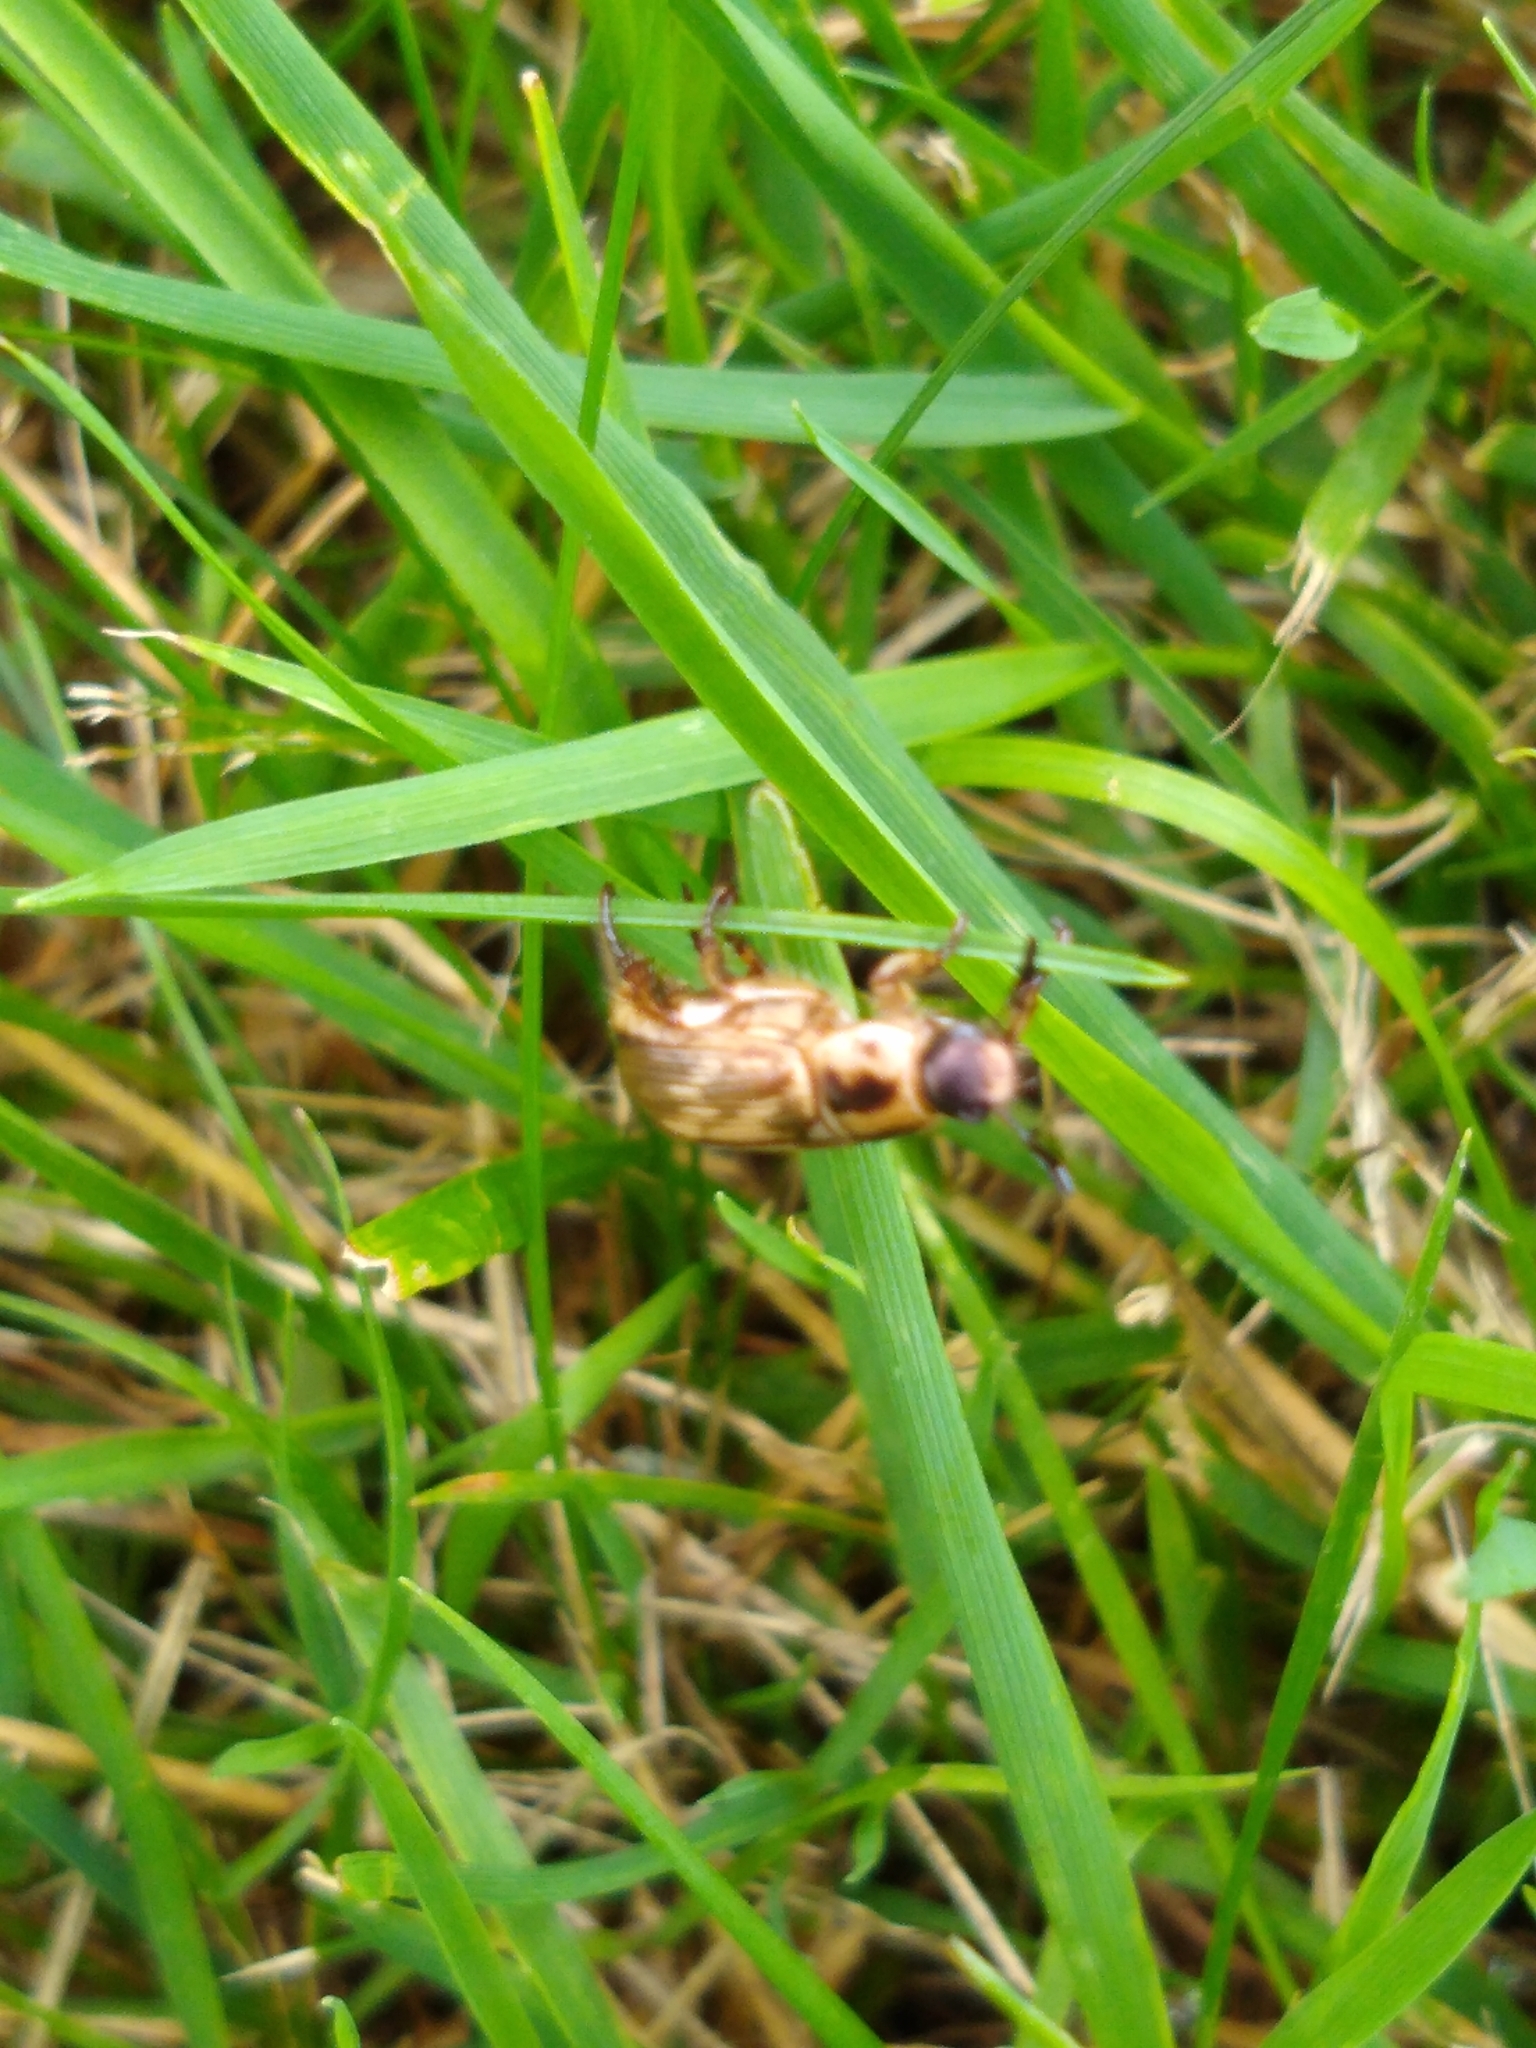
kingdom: Animalia
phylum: Arthropoda
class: Insecta
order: Coleoptera
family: Scarabaeidae
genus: Exomala
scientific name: Exomala orientalis
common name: Oriental beetle
